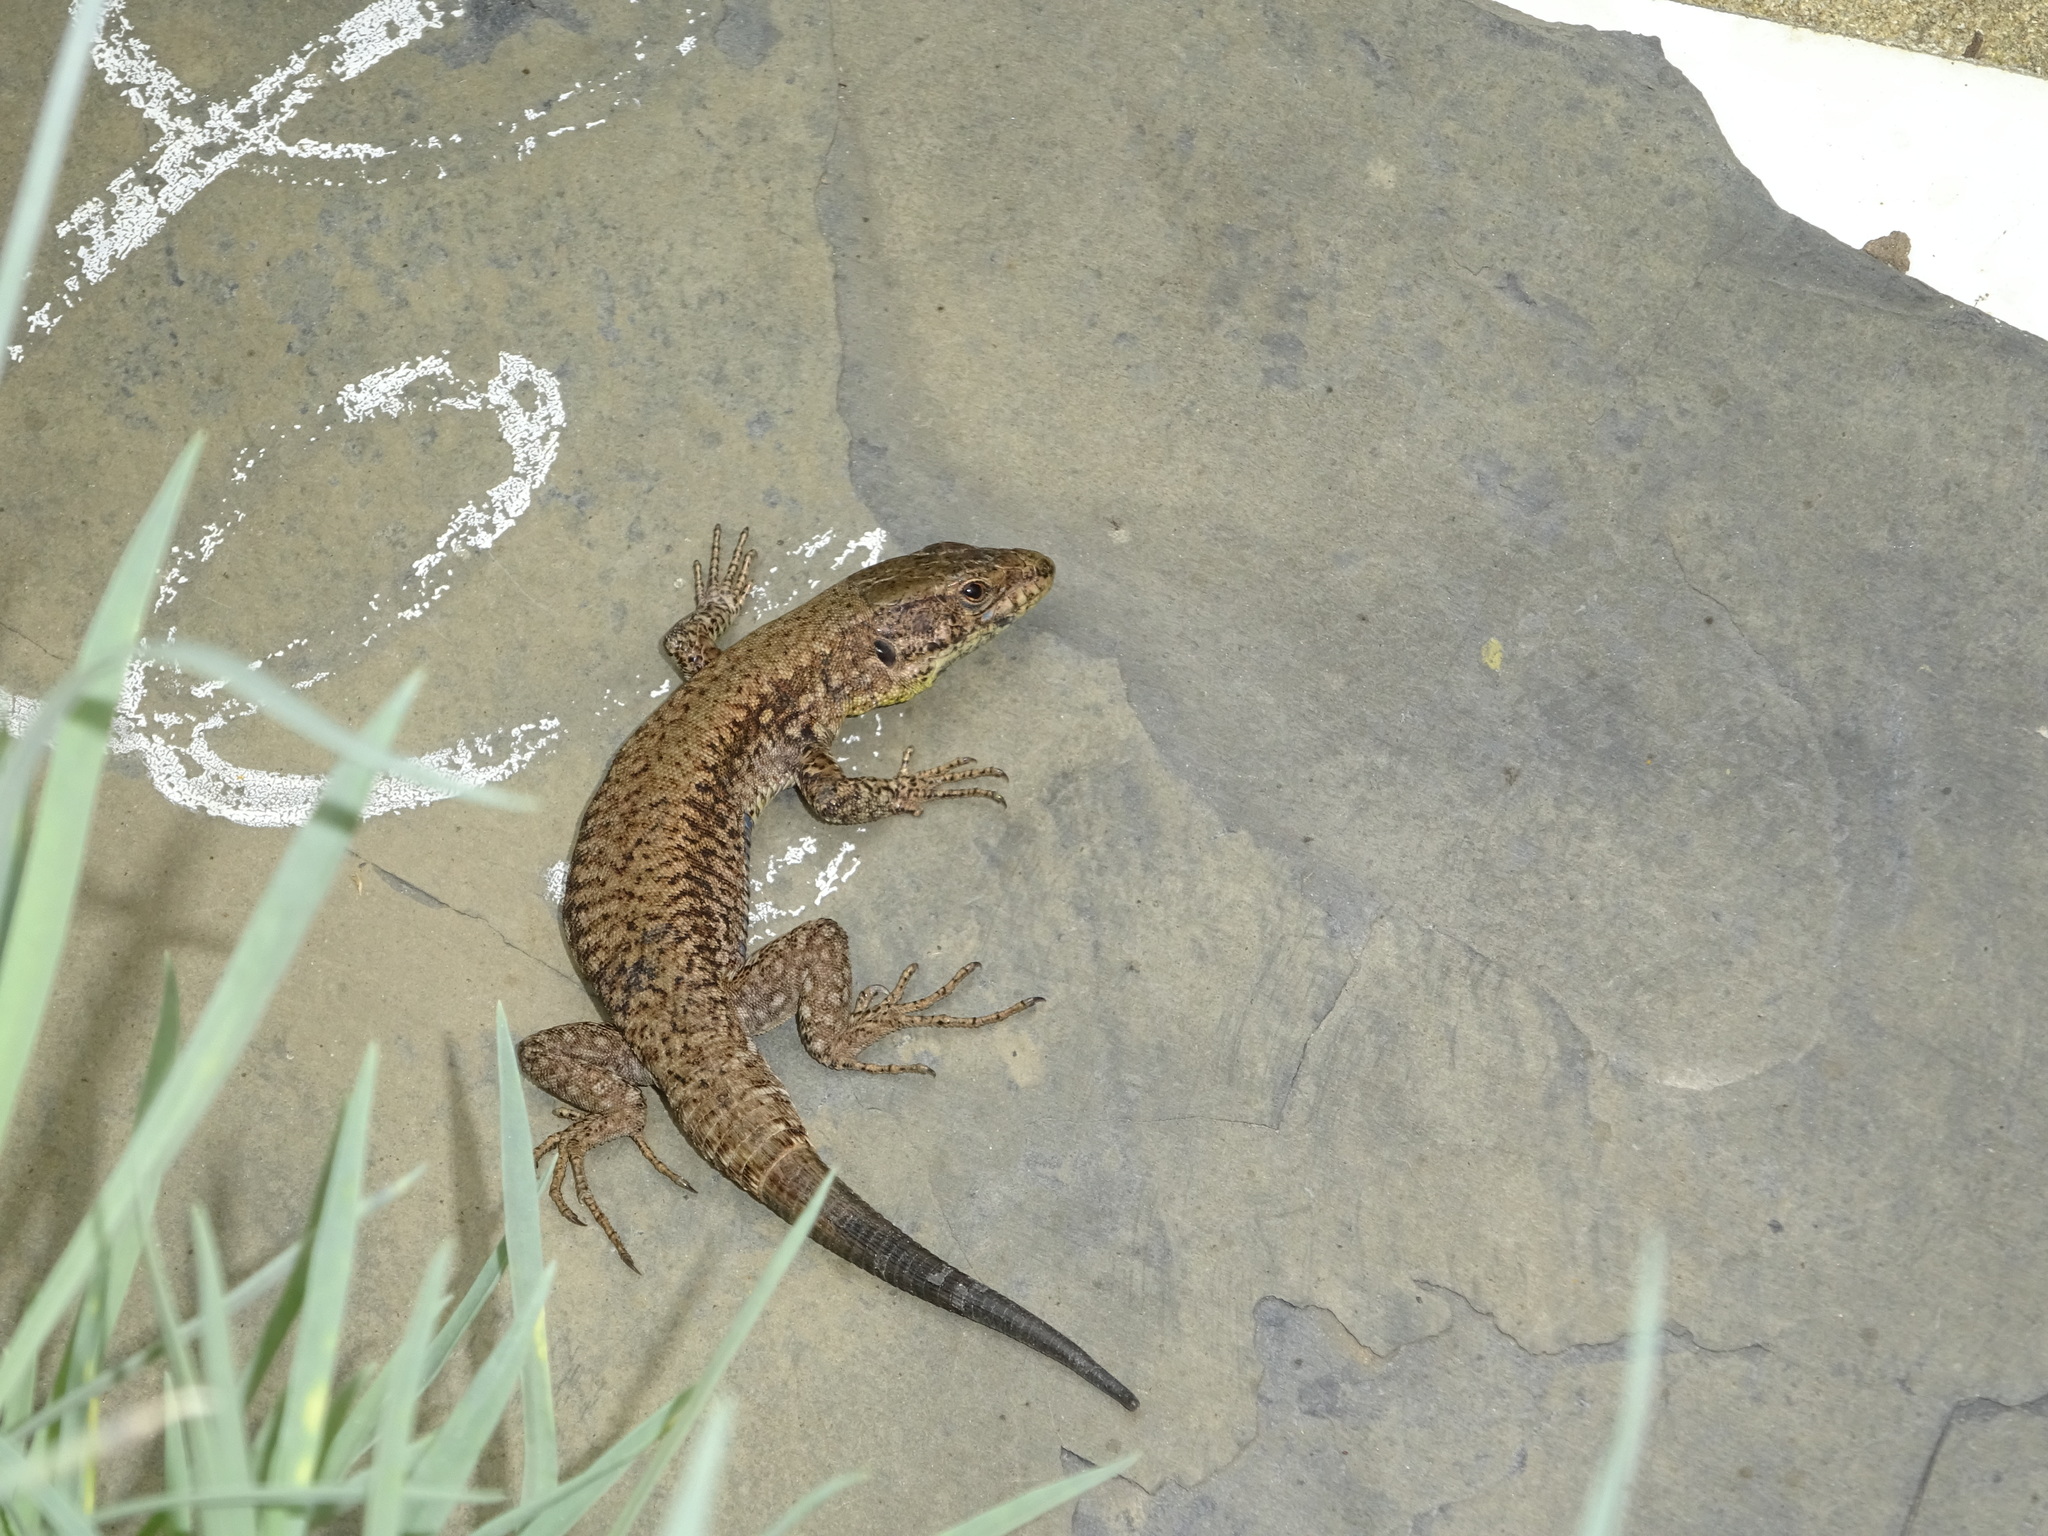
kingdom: Animalia
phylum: Chordata
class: Squamata
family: Lacertidae
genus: Podarcis
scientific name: Podarcis muralis
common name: Common wall lizard
